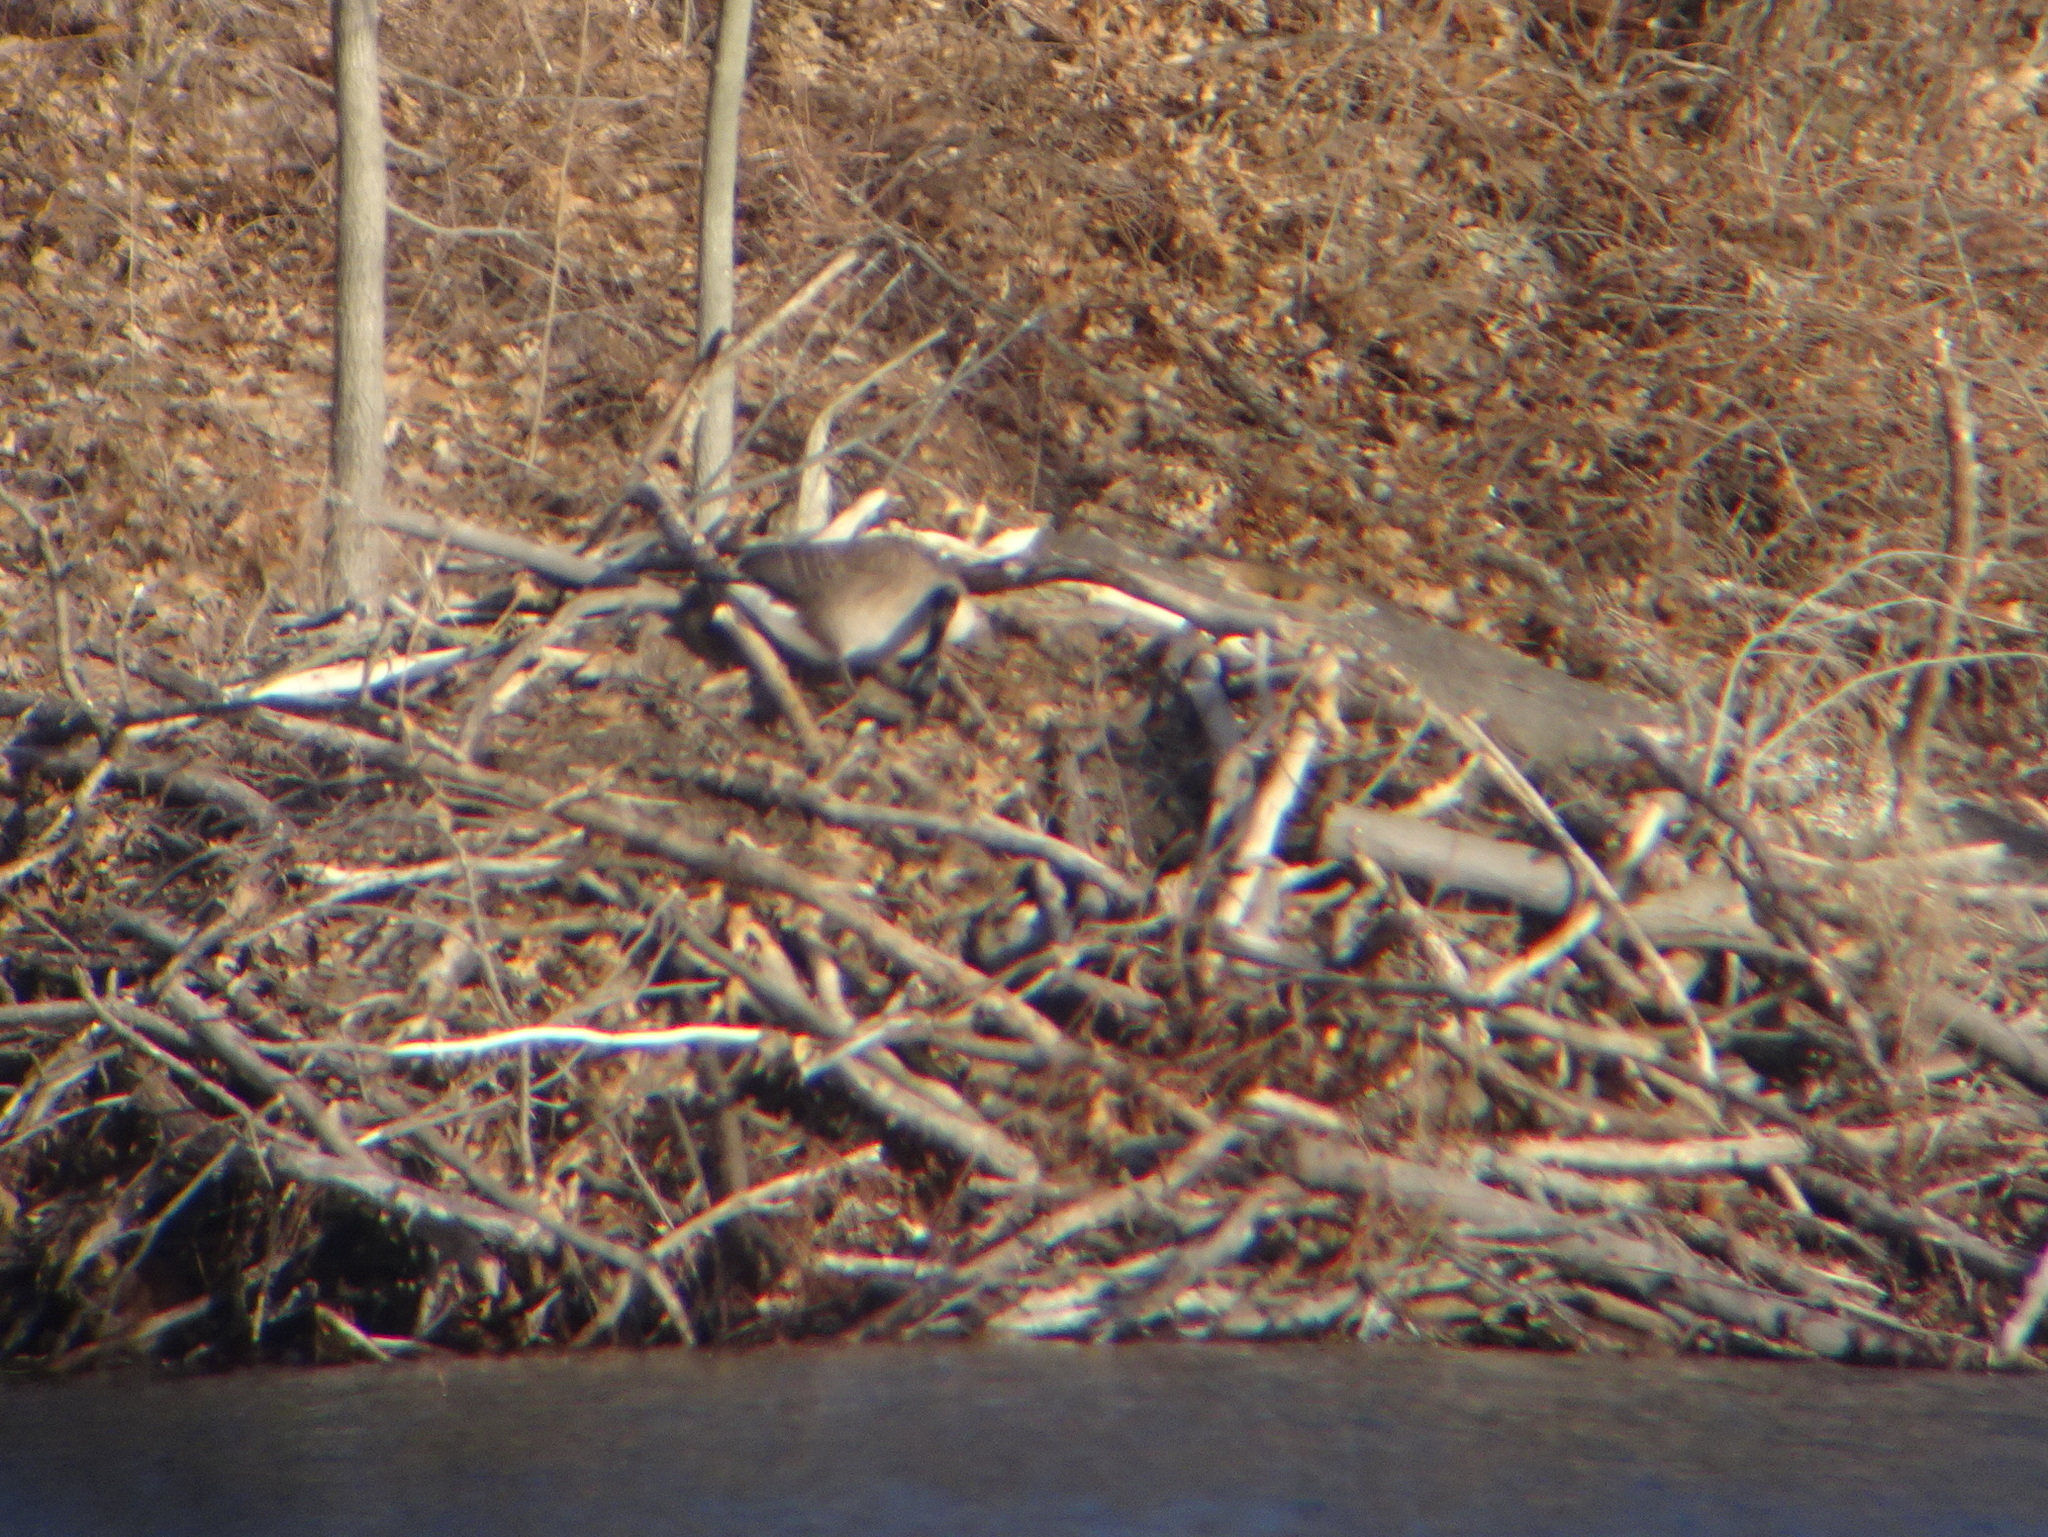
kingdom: Animalia
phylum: Chordata
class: Aves
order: Anseriformes
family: Anatidae
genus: Branta
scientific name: Branta canadensis
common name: Canada goose
